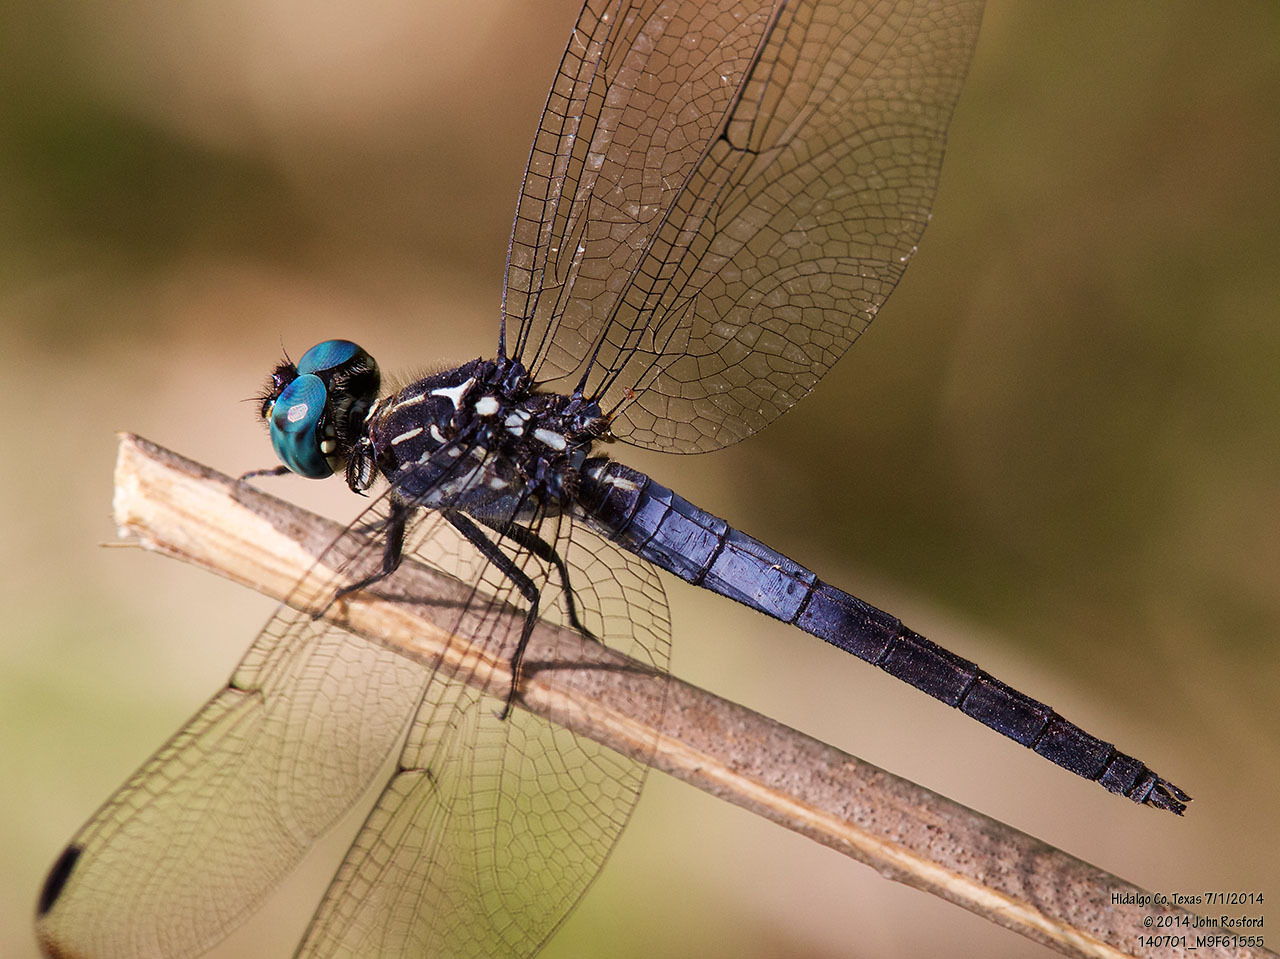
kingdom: Animalia
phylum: Arthropoda
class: Insecta
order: Odonata
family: Libellulidae
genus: Cannaphila
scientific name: Cannaphila insularis
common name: Gray-waisted skimmer
